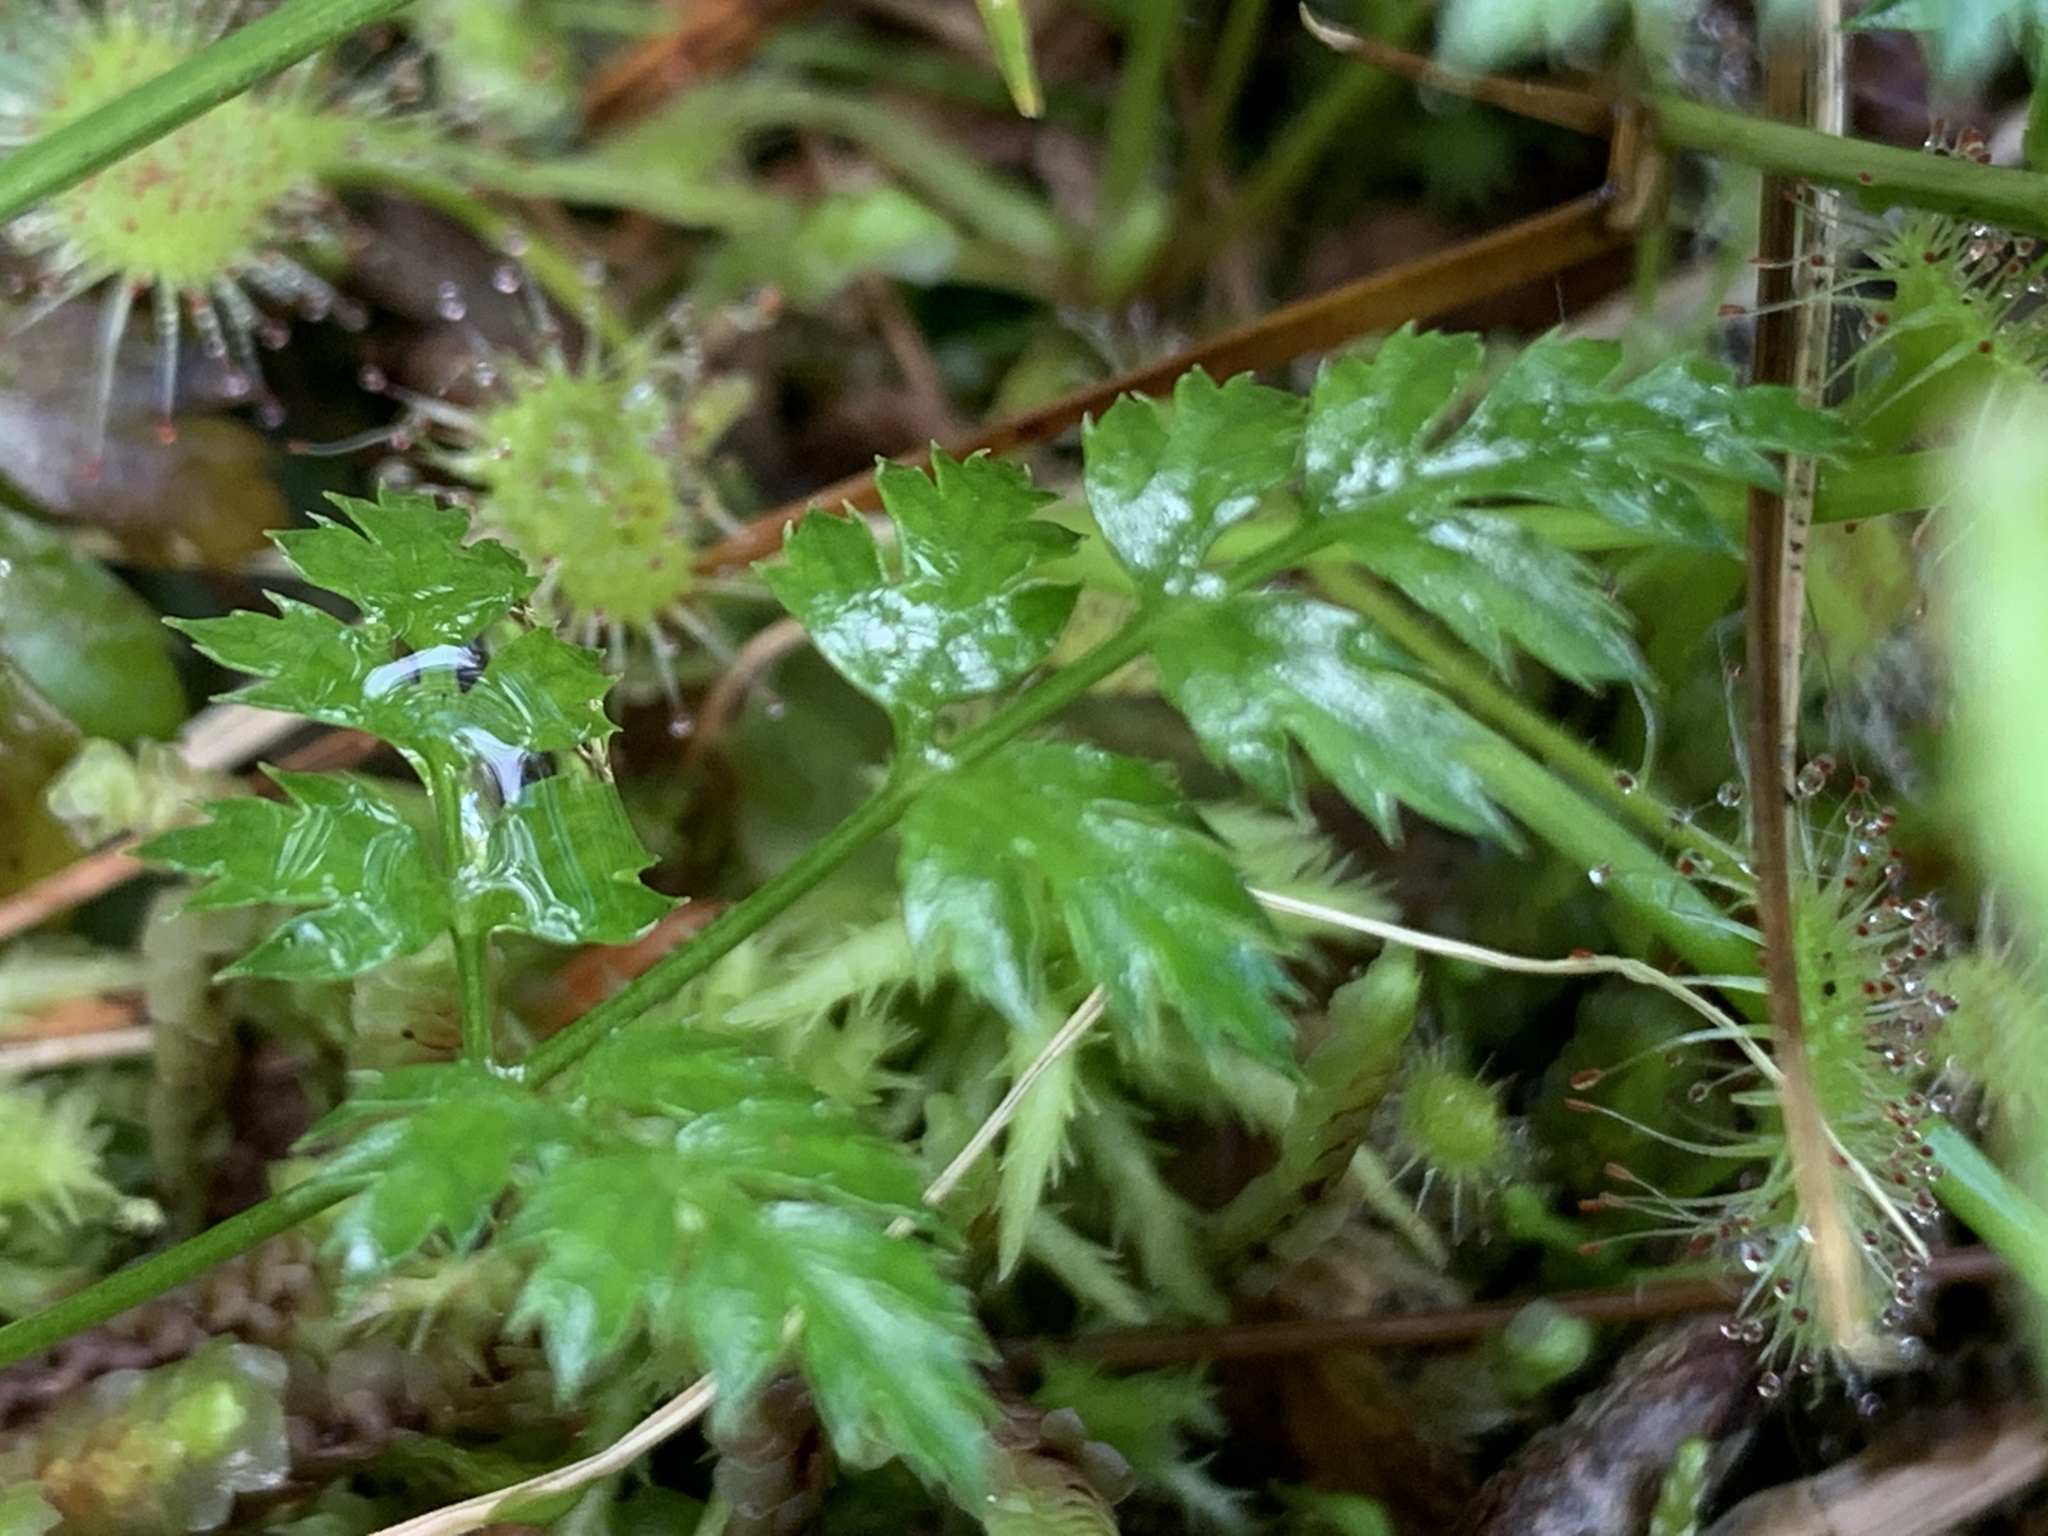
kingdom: Plantae
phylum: Tracheophyta
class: Magnoliopsida
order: Ranunculales
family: Ranunculaceae
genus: Coptis
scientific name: Coptis aspleniifolia
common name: Fern-leaved goldthread
